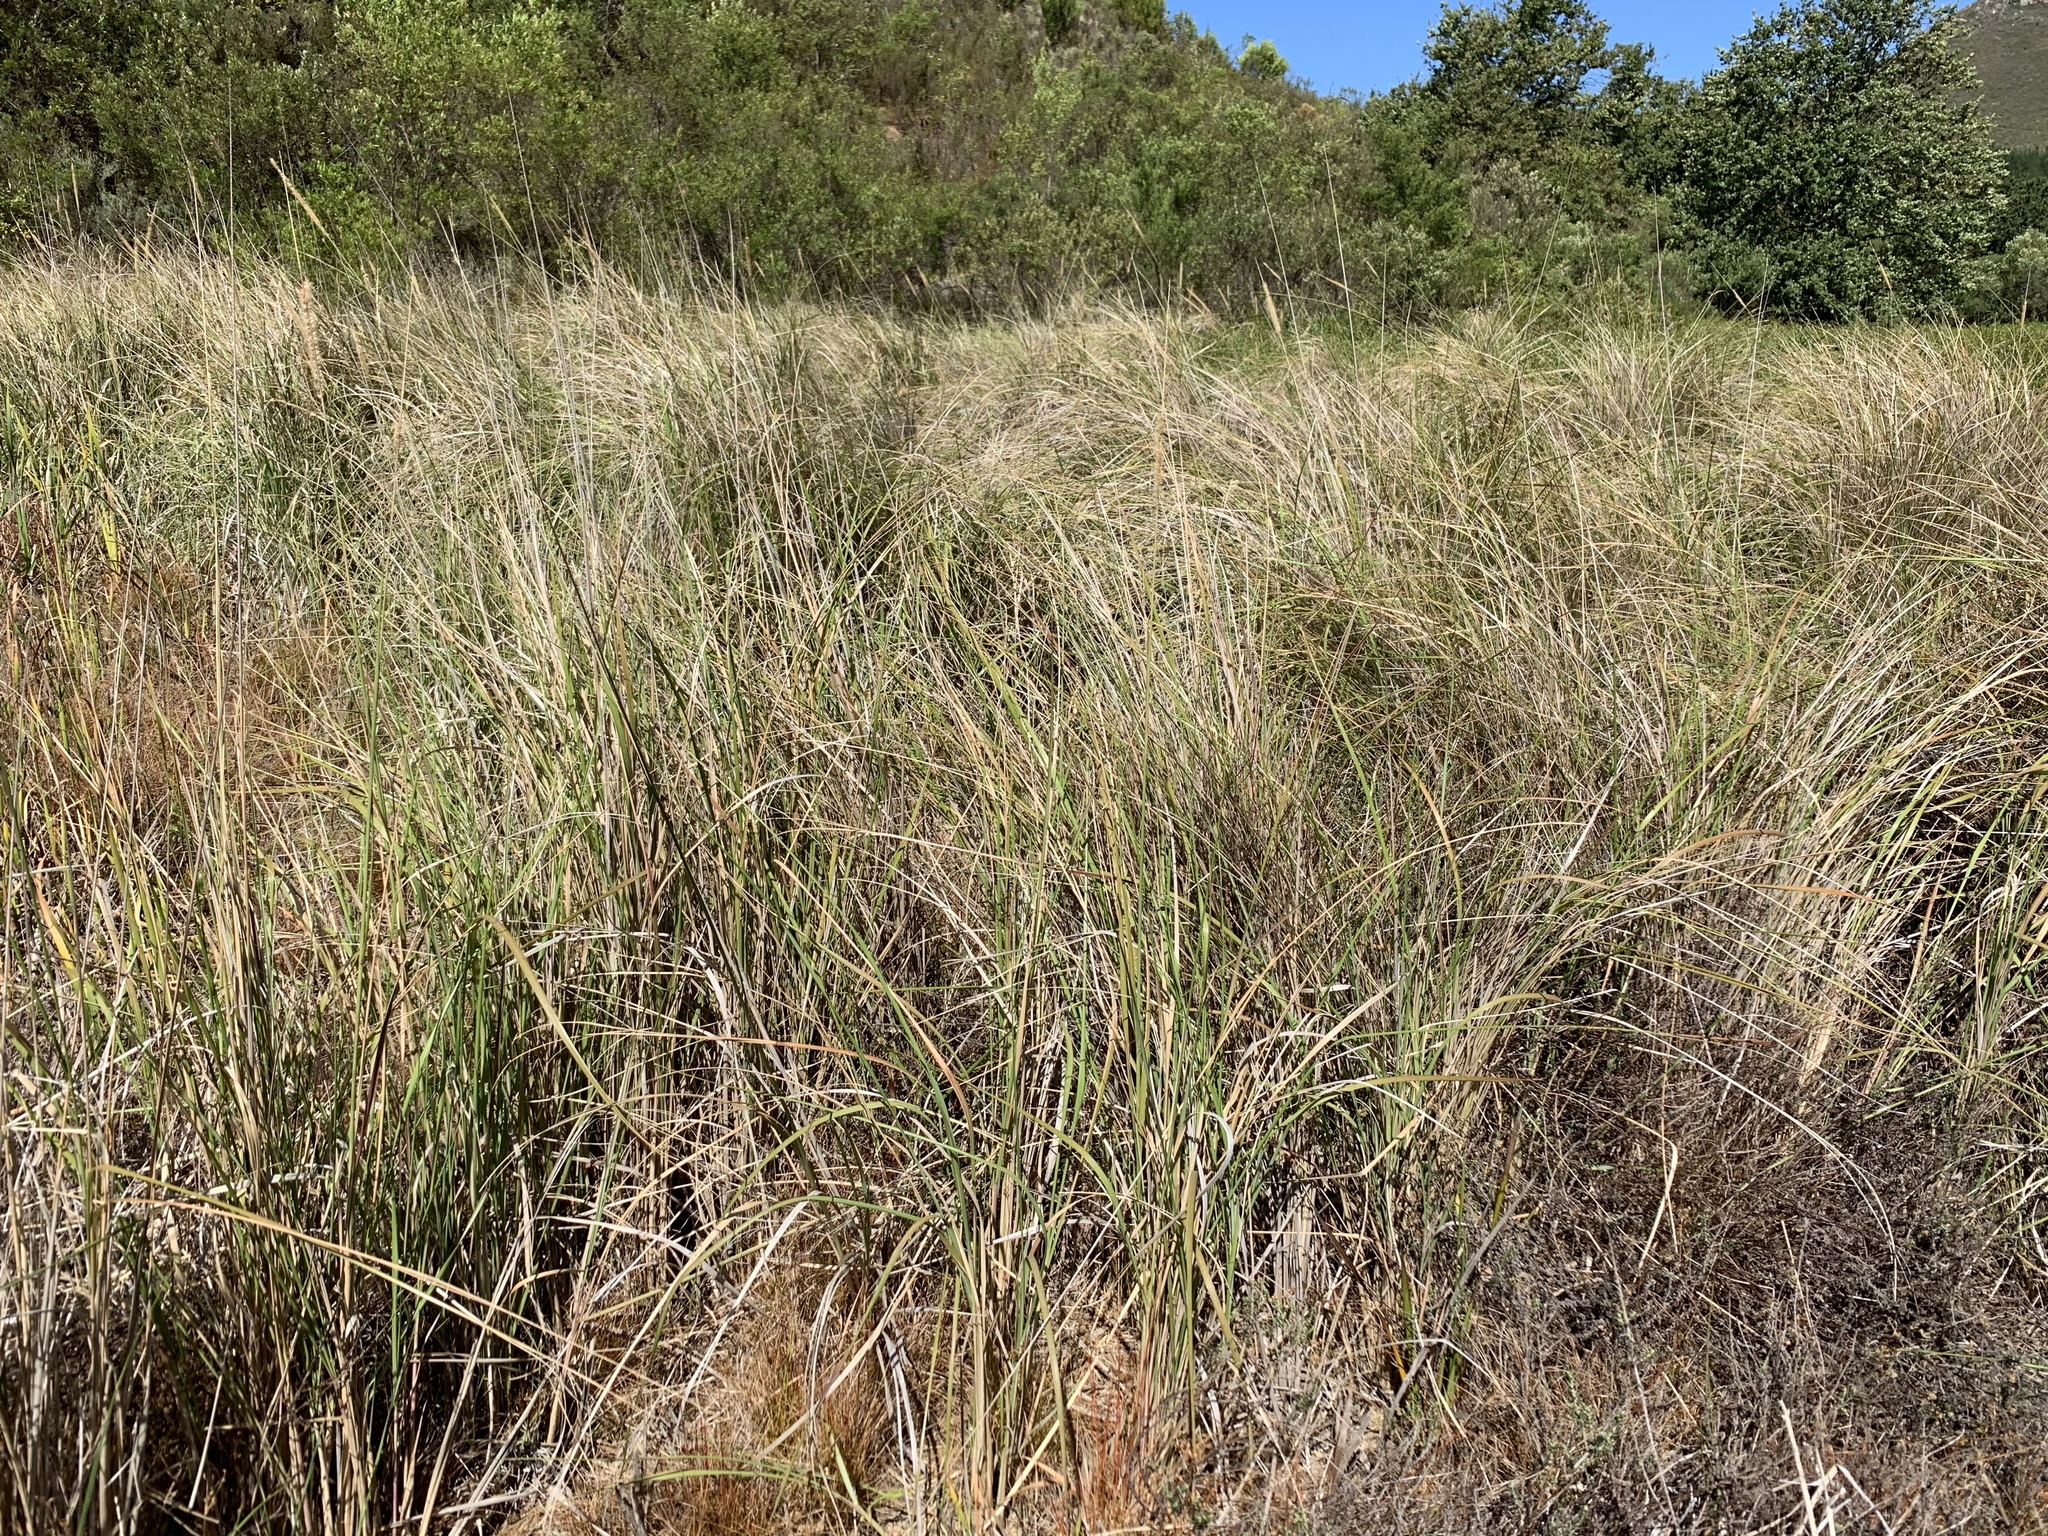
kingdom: Plantae
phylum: Tracheophyta
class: Liliopsida
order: Poales
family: Poaceae
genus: Cenchrus
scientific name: Cenchrus caudatus
